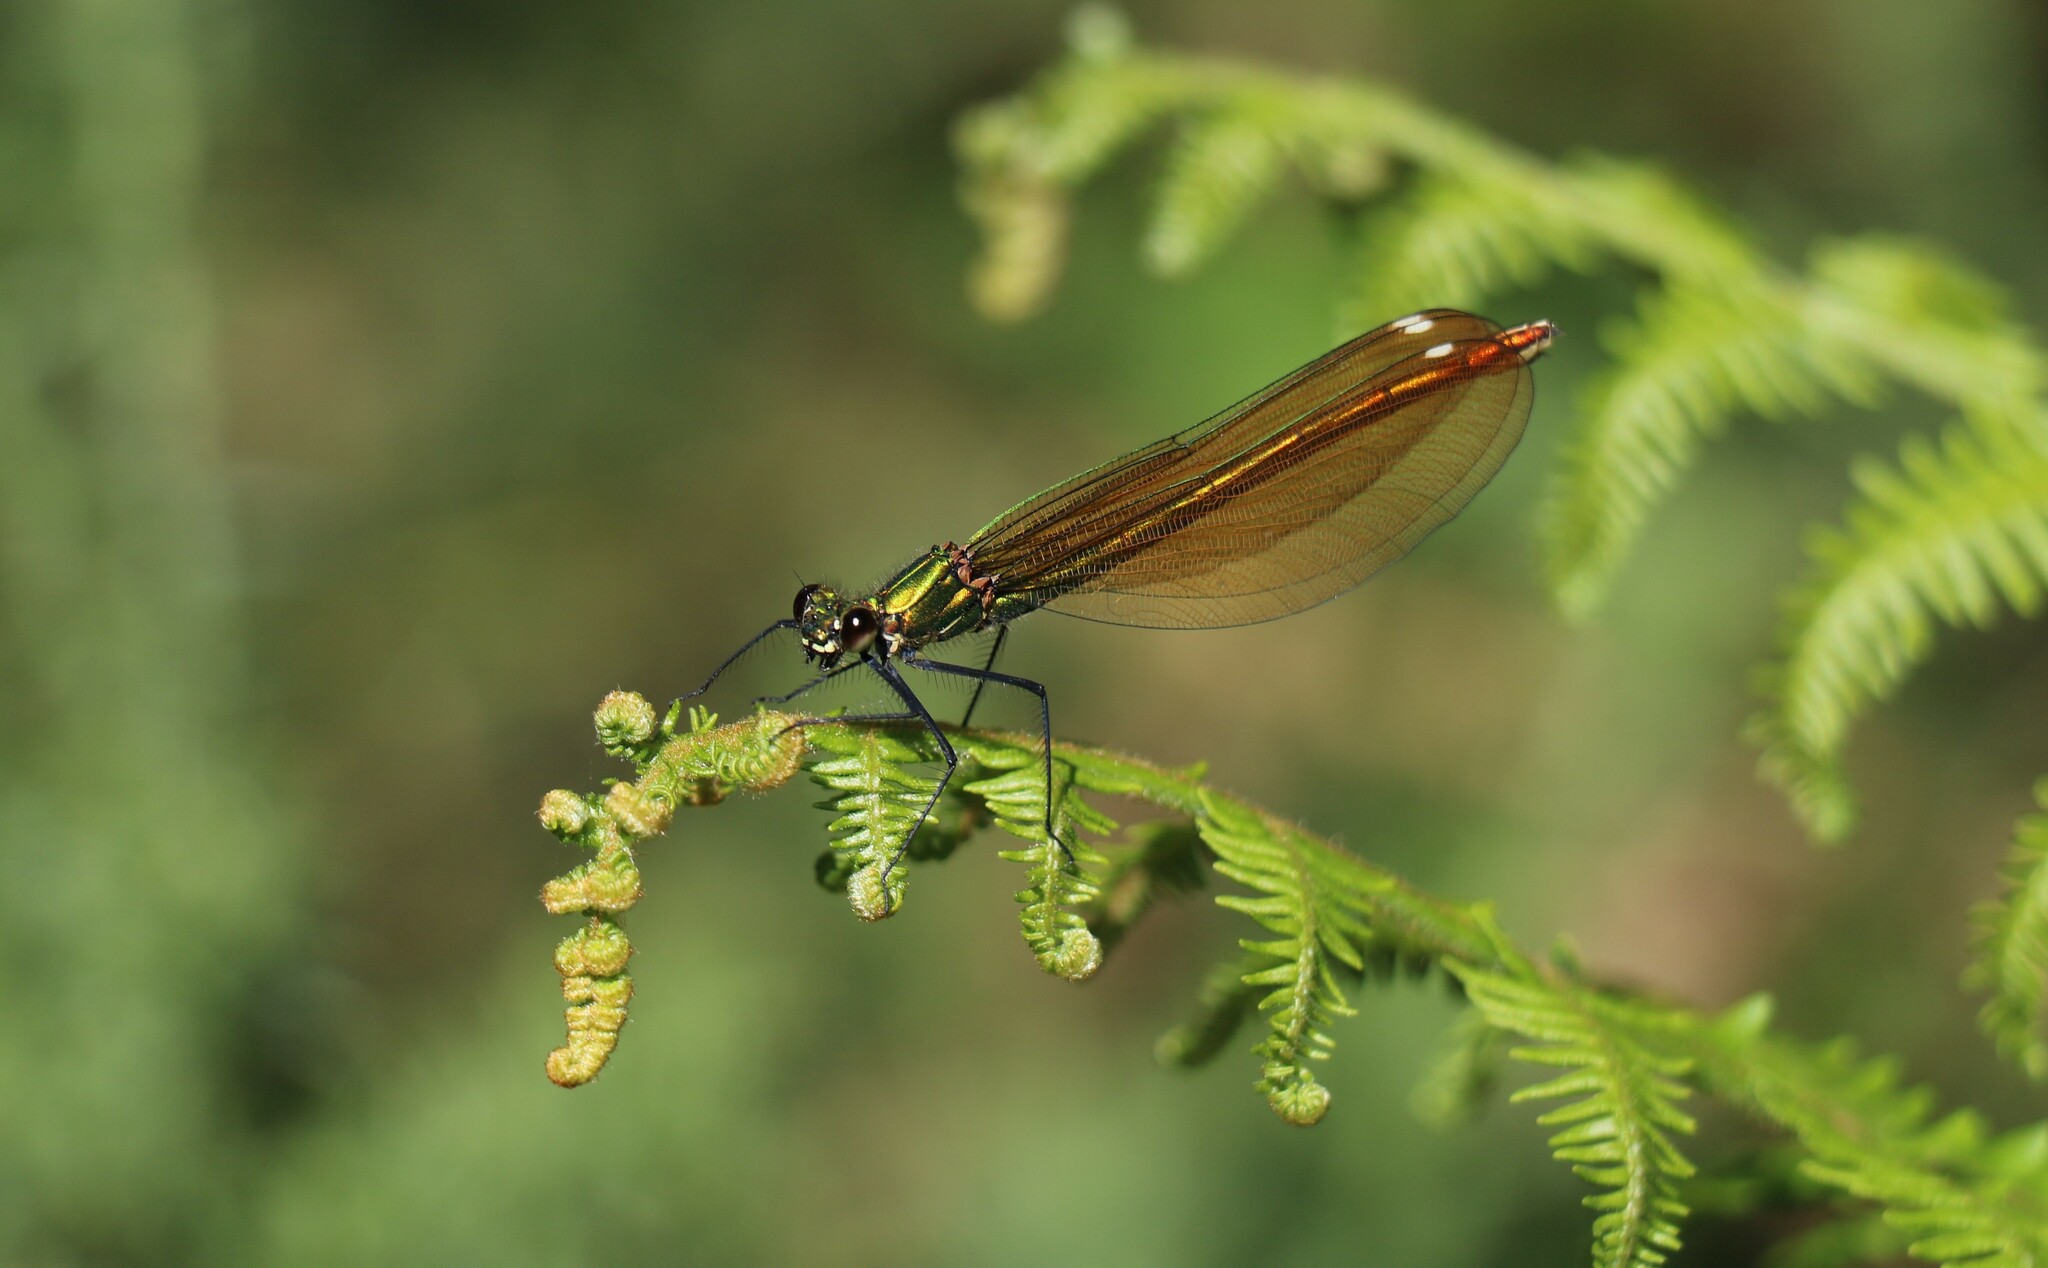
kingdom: Animalia
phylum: Arthropoda
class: Insecta
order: Odonata
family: Calopterygidae
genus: Calopteryx
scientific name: Calopteryx virgo
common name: Beautiful demoiselle
